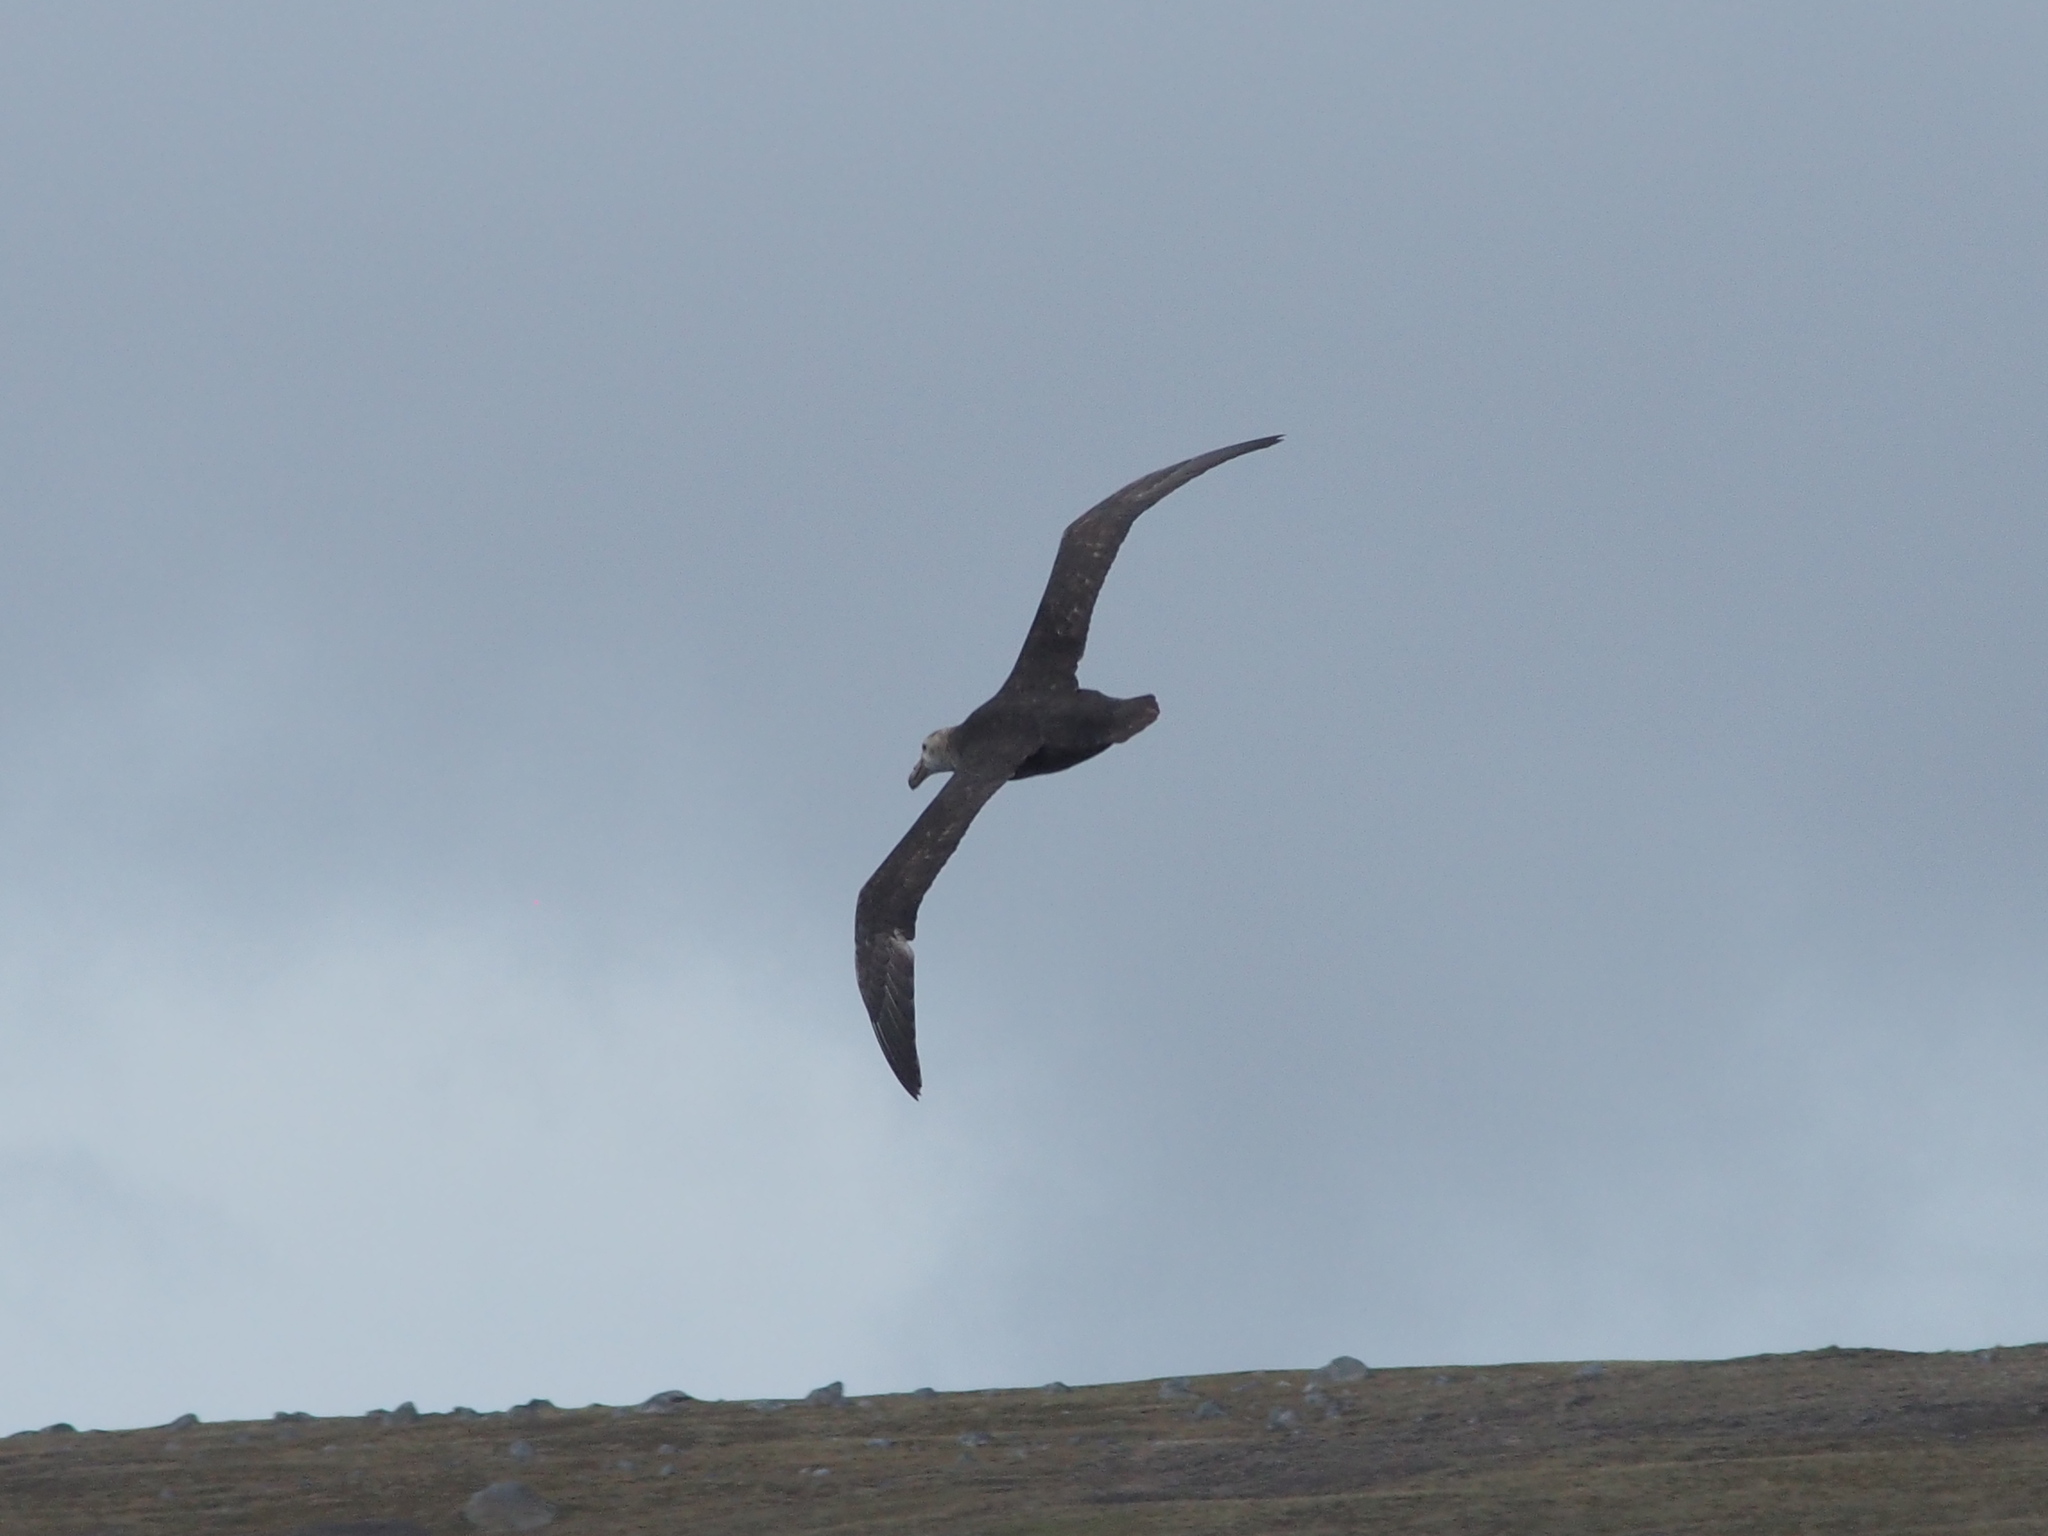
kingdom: Animalia
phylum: Chordata
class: Aves
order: Procellariiformes
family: Procellariidae
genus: Macronectes
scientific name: Macronectes giganteus
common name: Southern giant petrel
